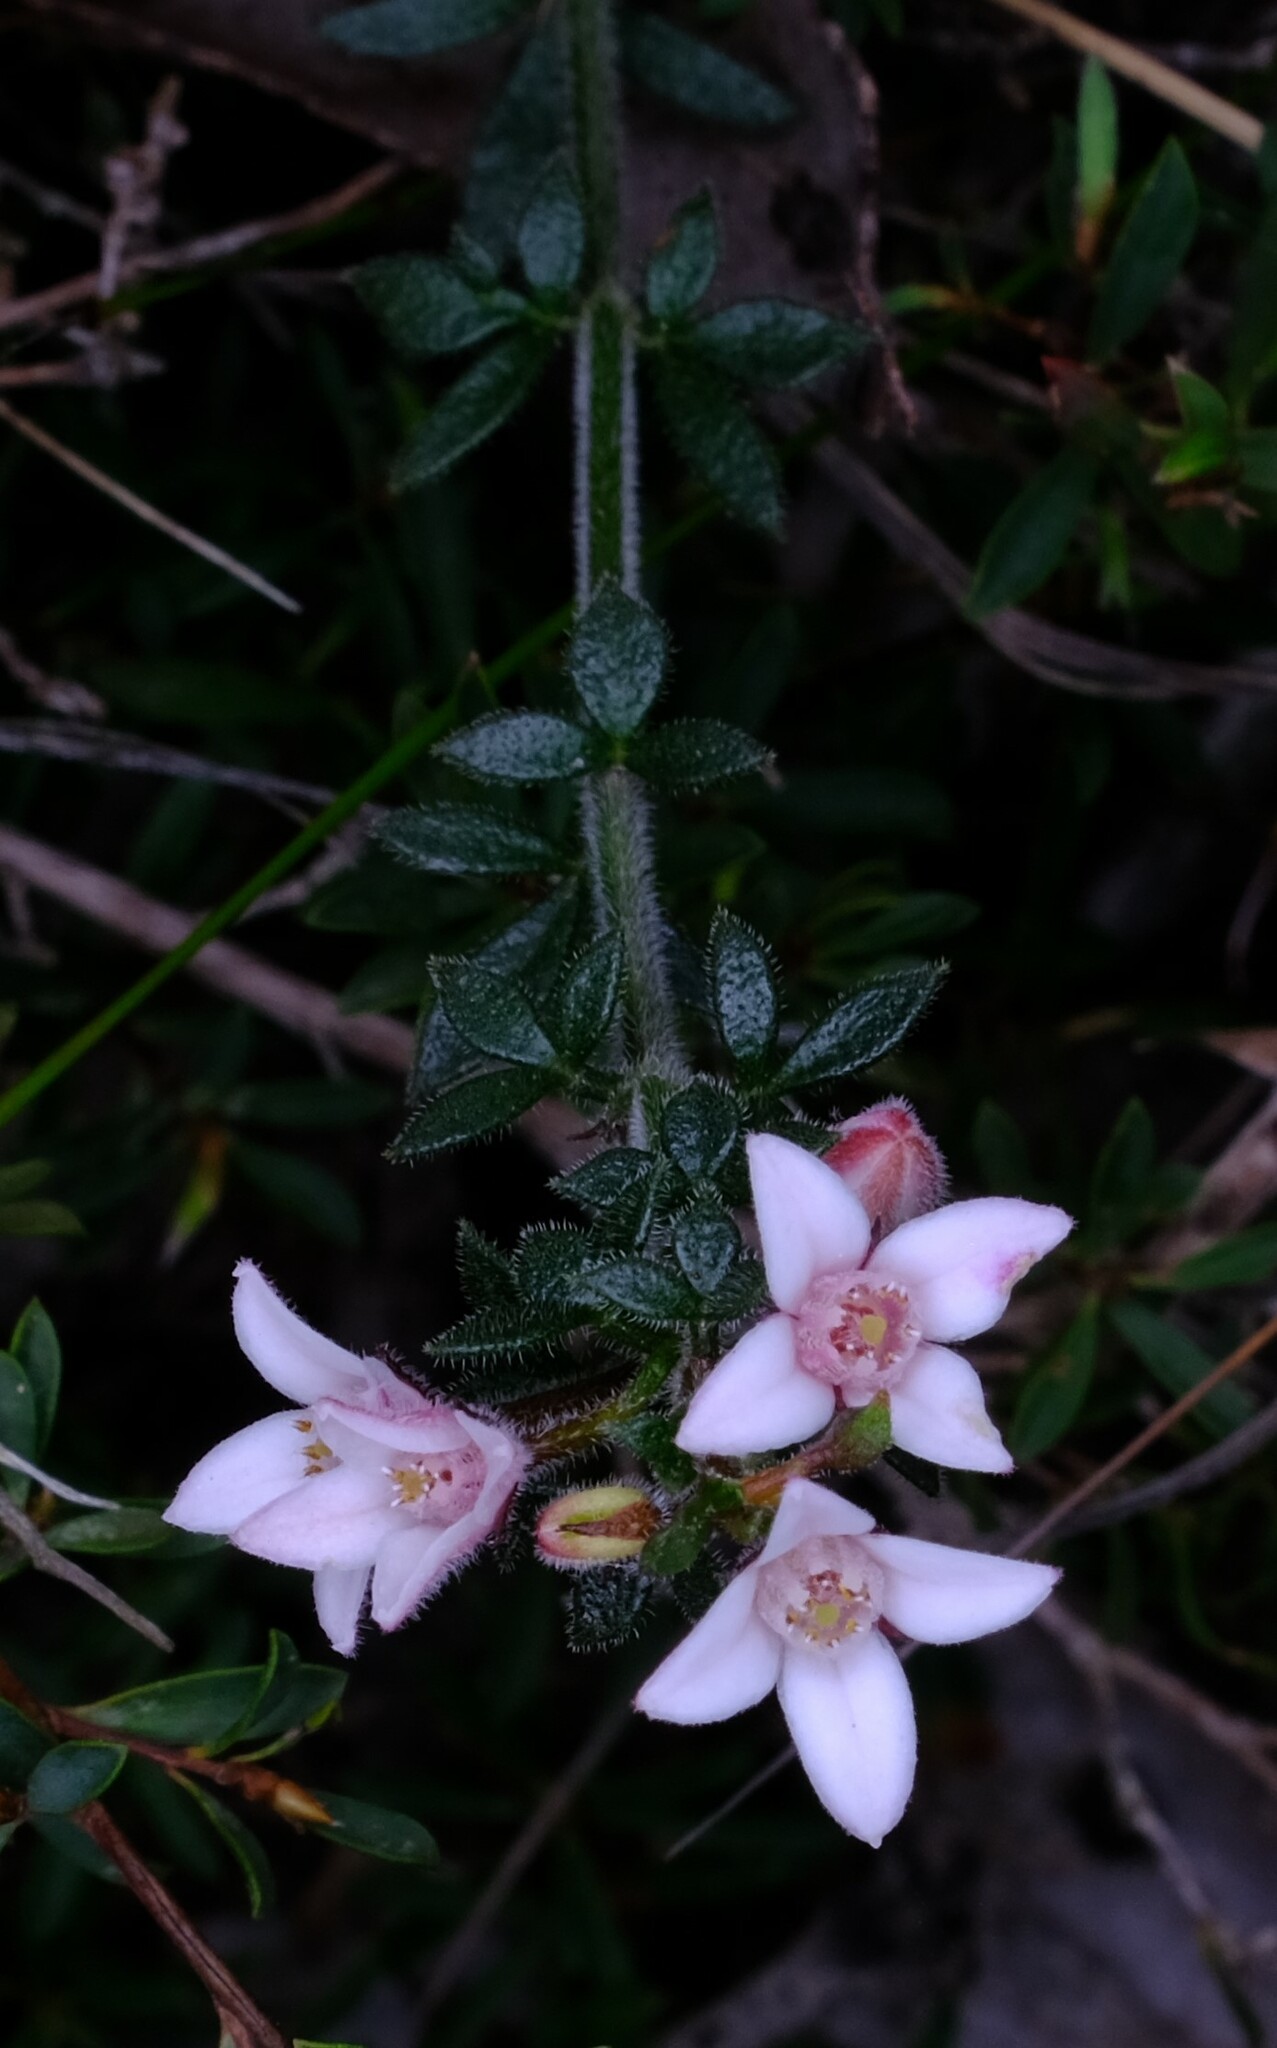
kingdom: Plantae
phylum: Tracheophyta
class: Magnoliopsida
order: Sapindales
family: Rutaceae
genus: Cyanothamnus
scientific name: Cyanothamnus nanus
